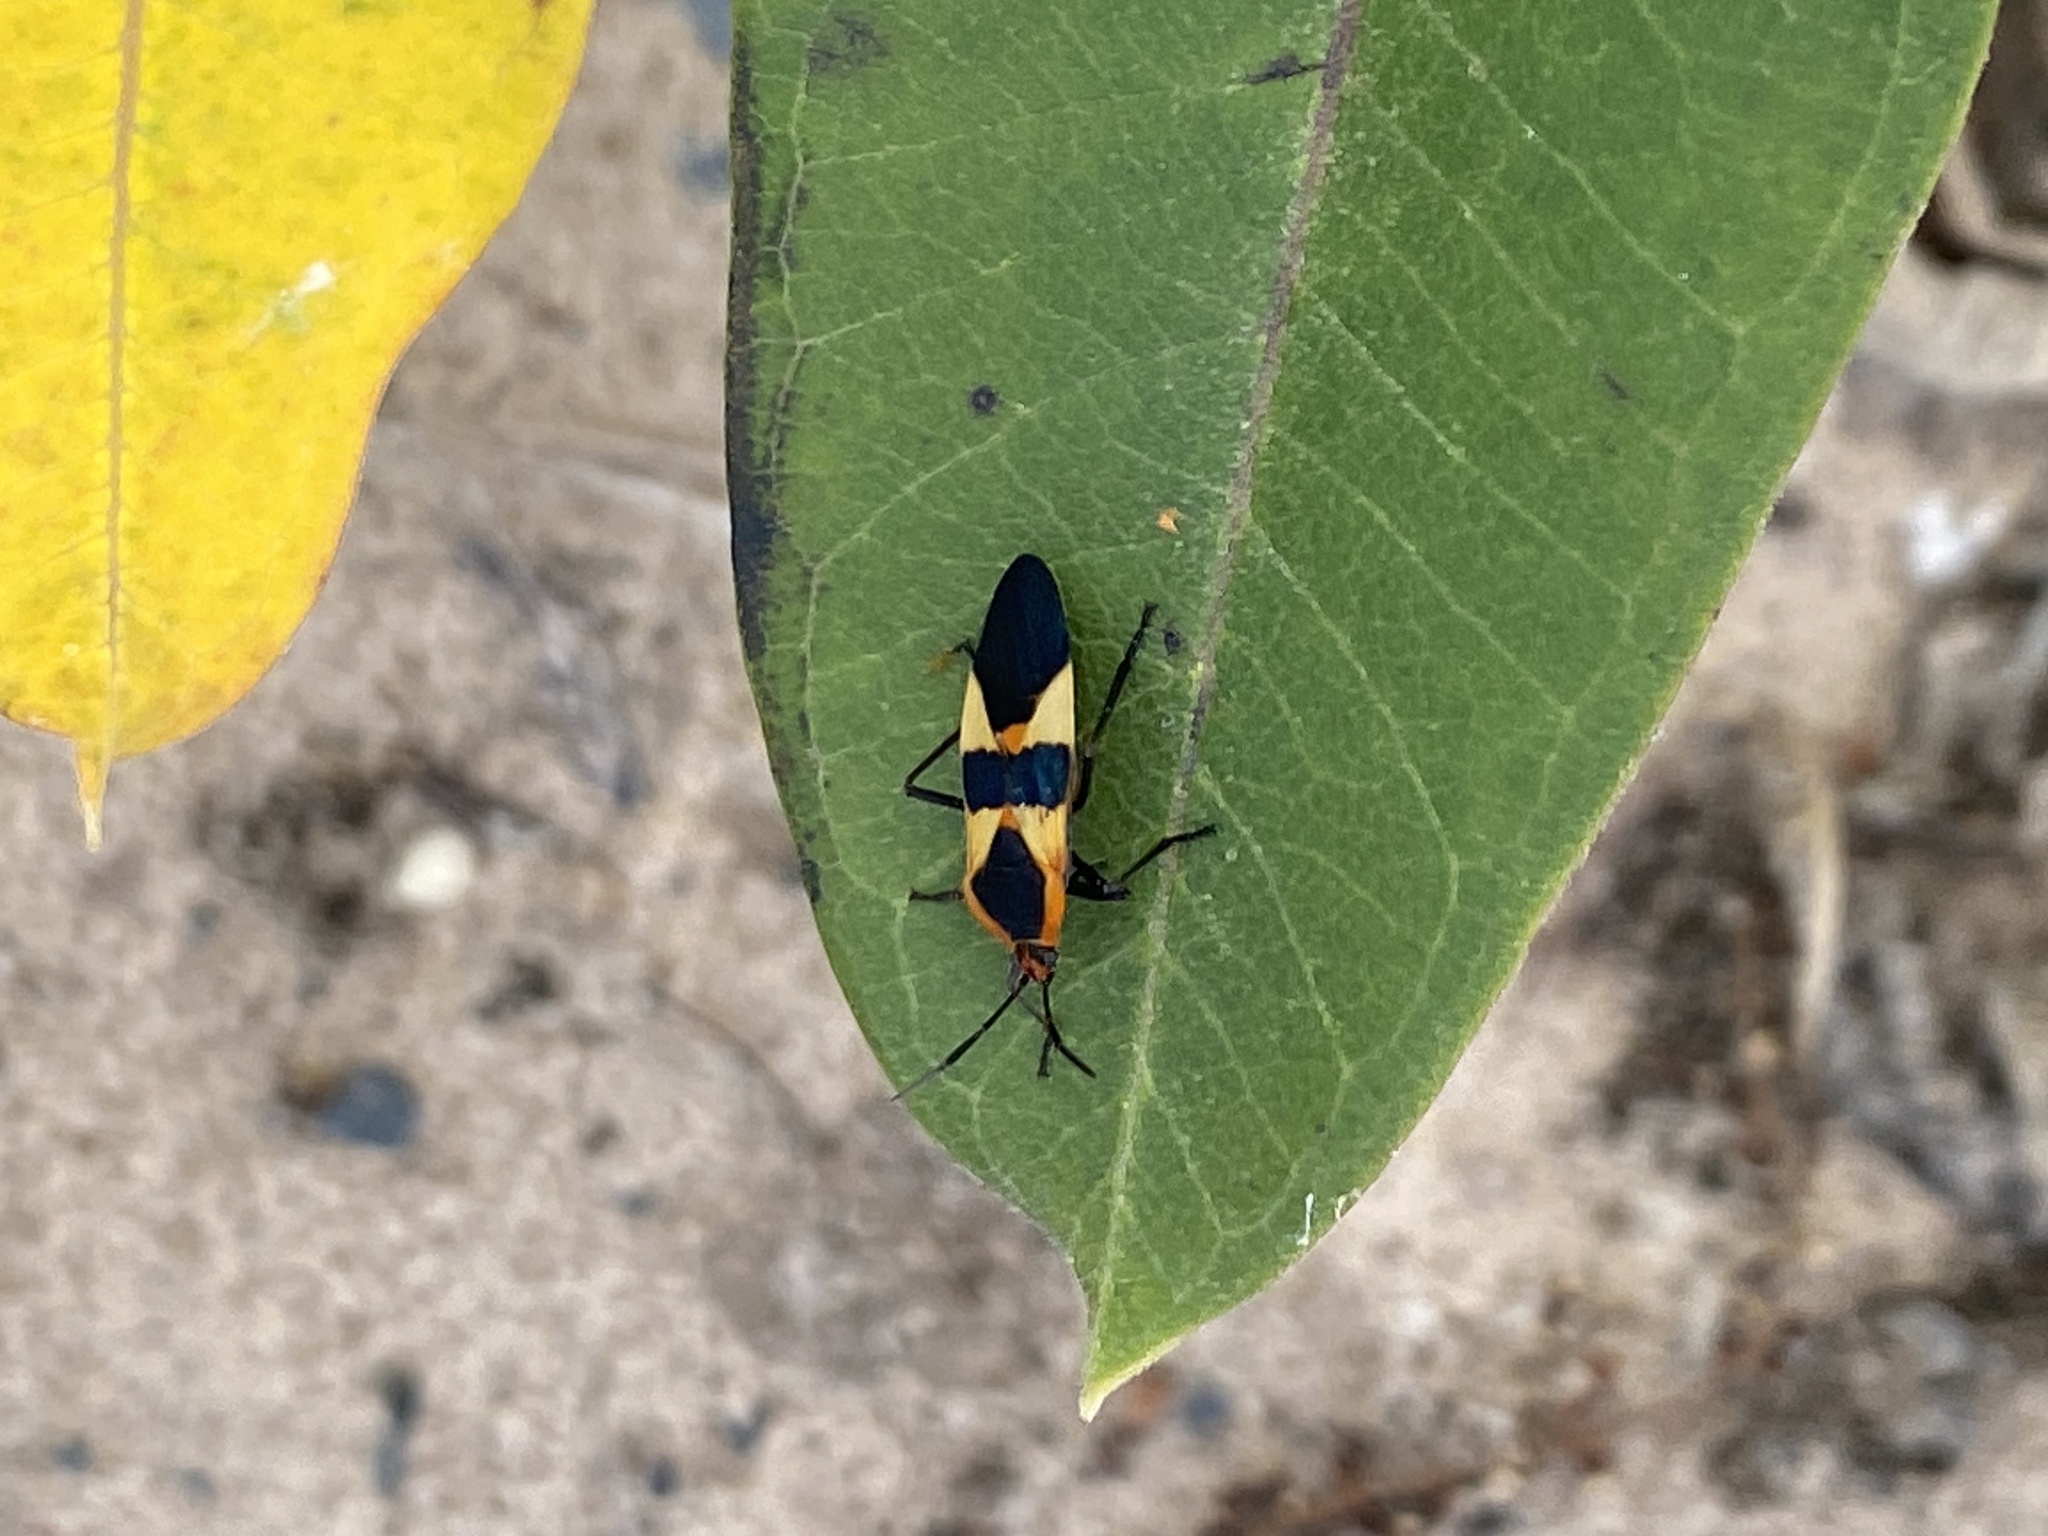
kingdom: Animalia
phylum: Arthropoda
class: Insecta
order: Hemiptera
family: Lygaeidae
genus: Oncopeltus
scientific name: Oncopeltus fasciatus
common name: Large milkweed bug
